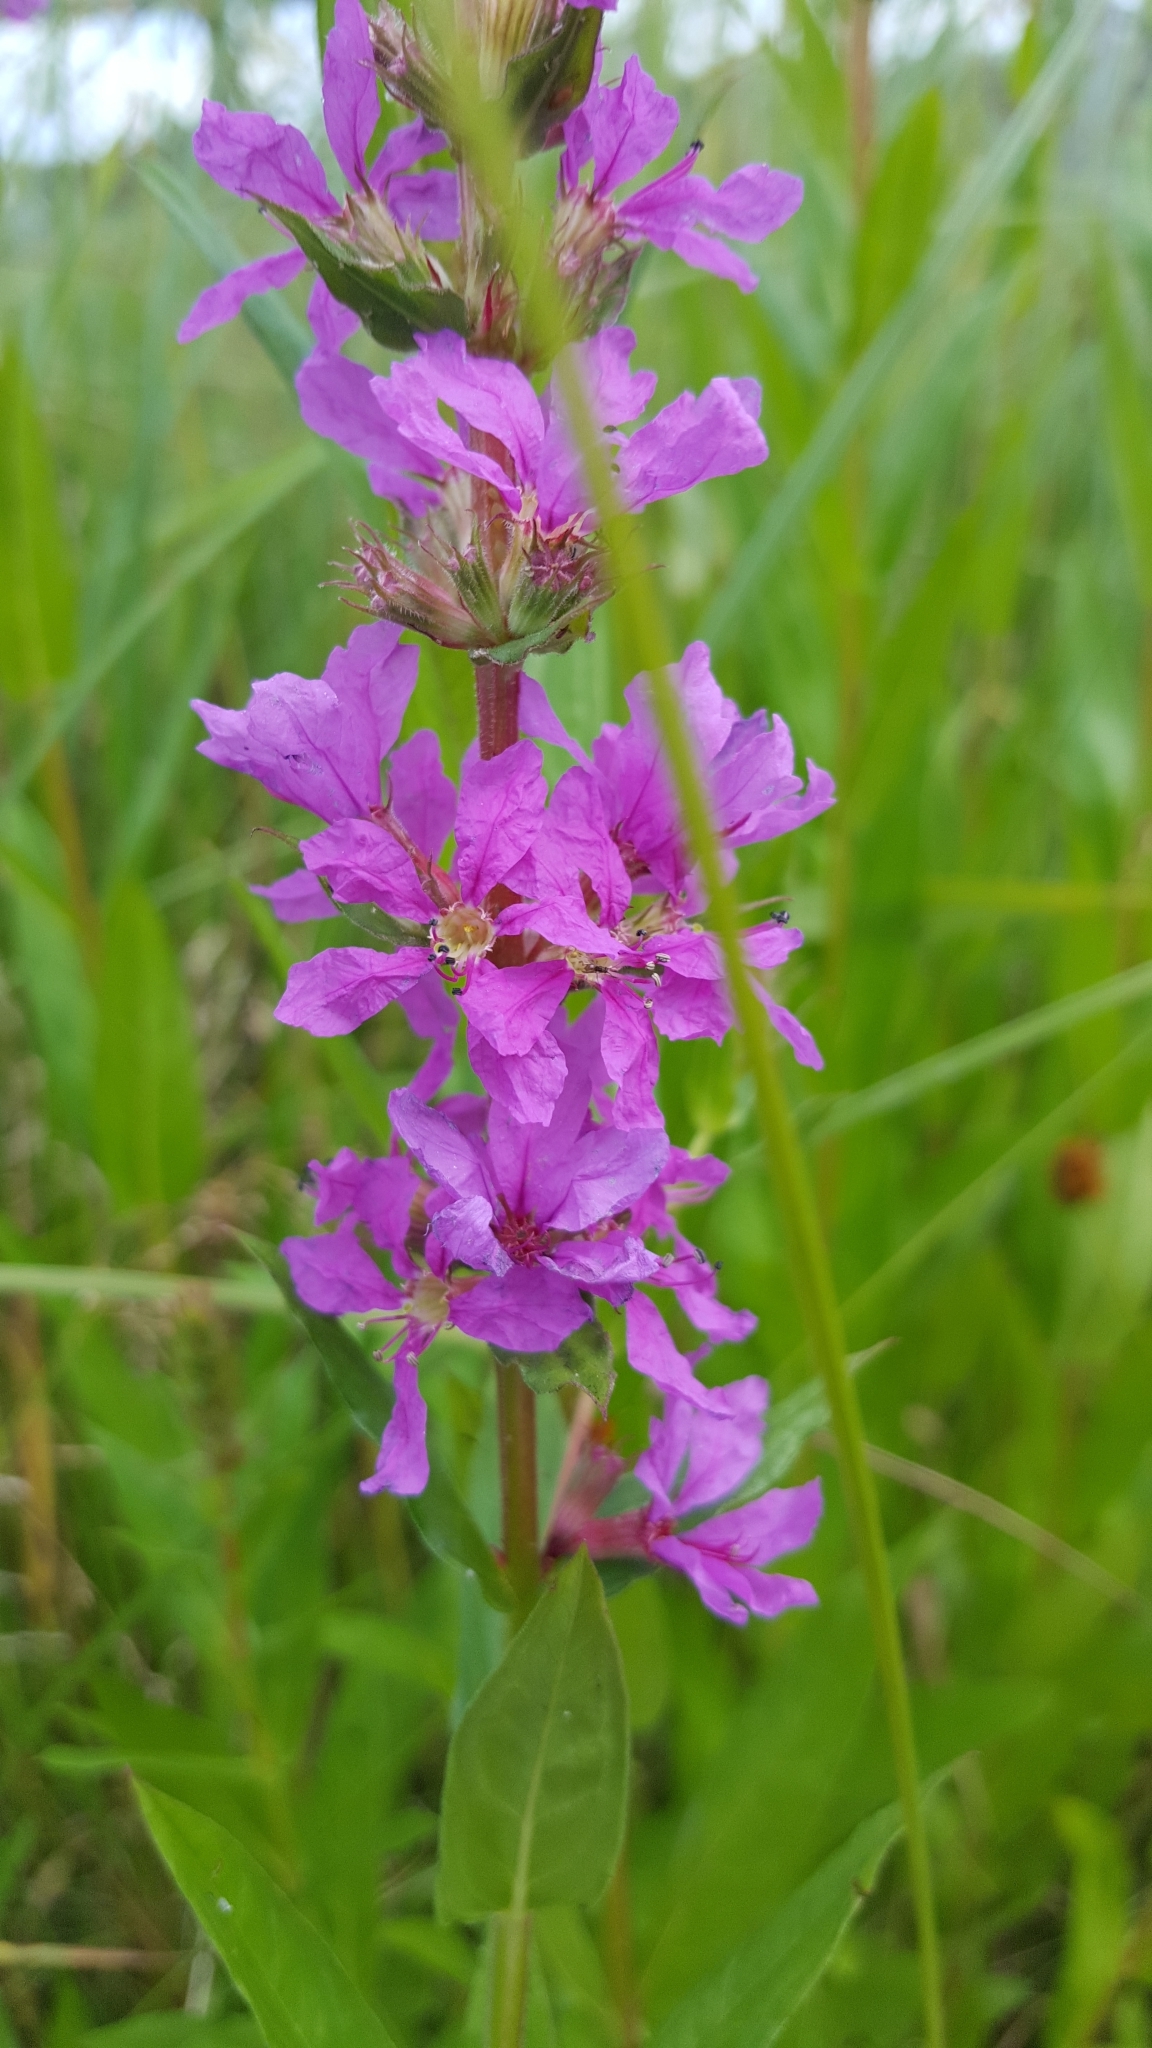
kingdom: Plantae
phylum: Tracheophyta
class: Magnoliopsida
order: Myrtales
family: Lythraceae
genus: Lythrum
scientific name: Lythrum salicaria
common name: Purple loosestrife
